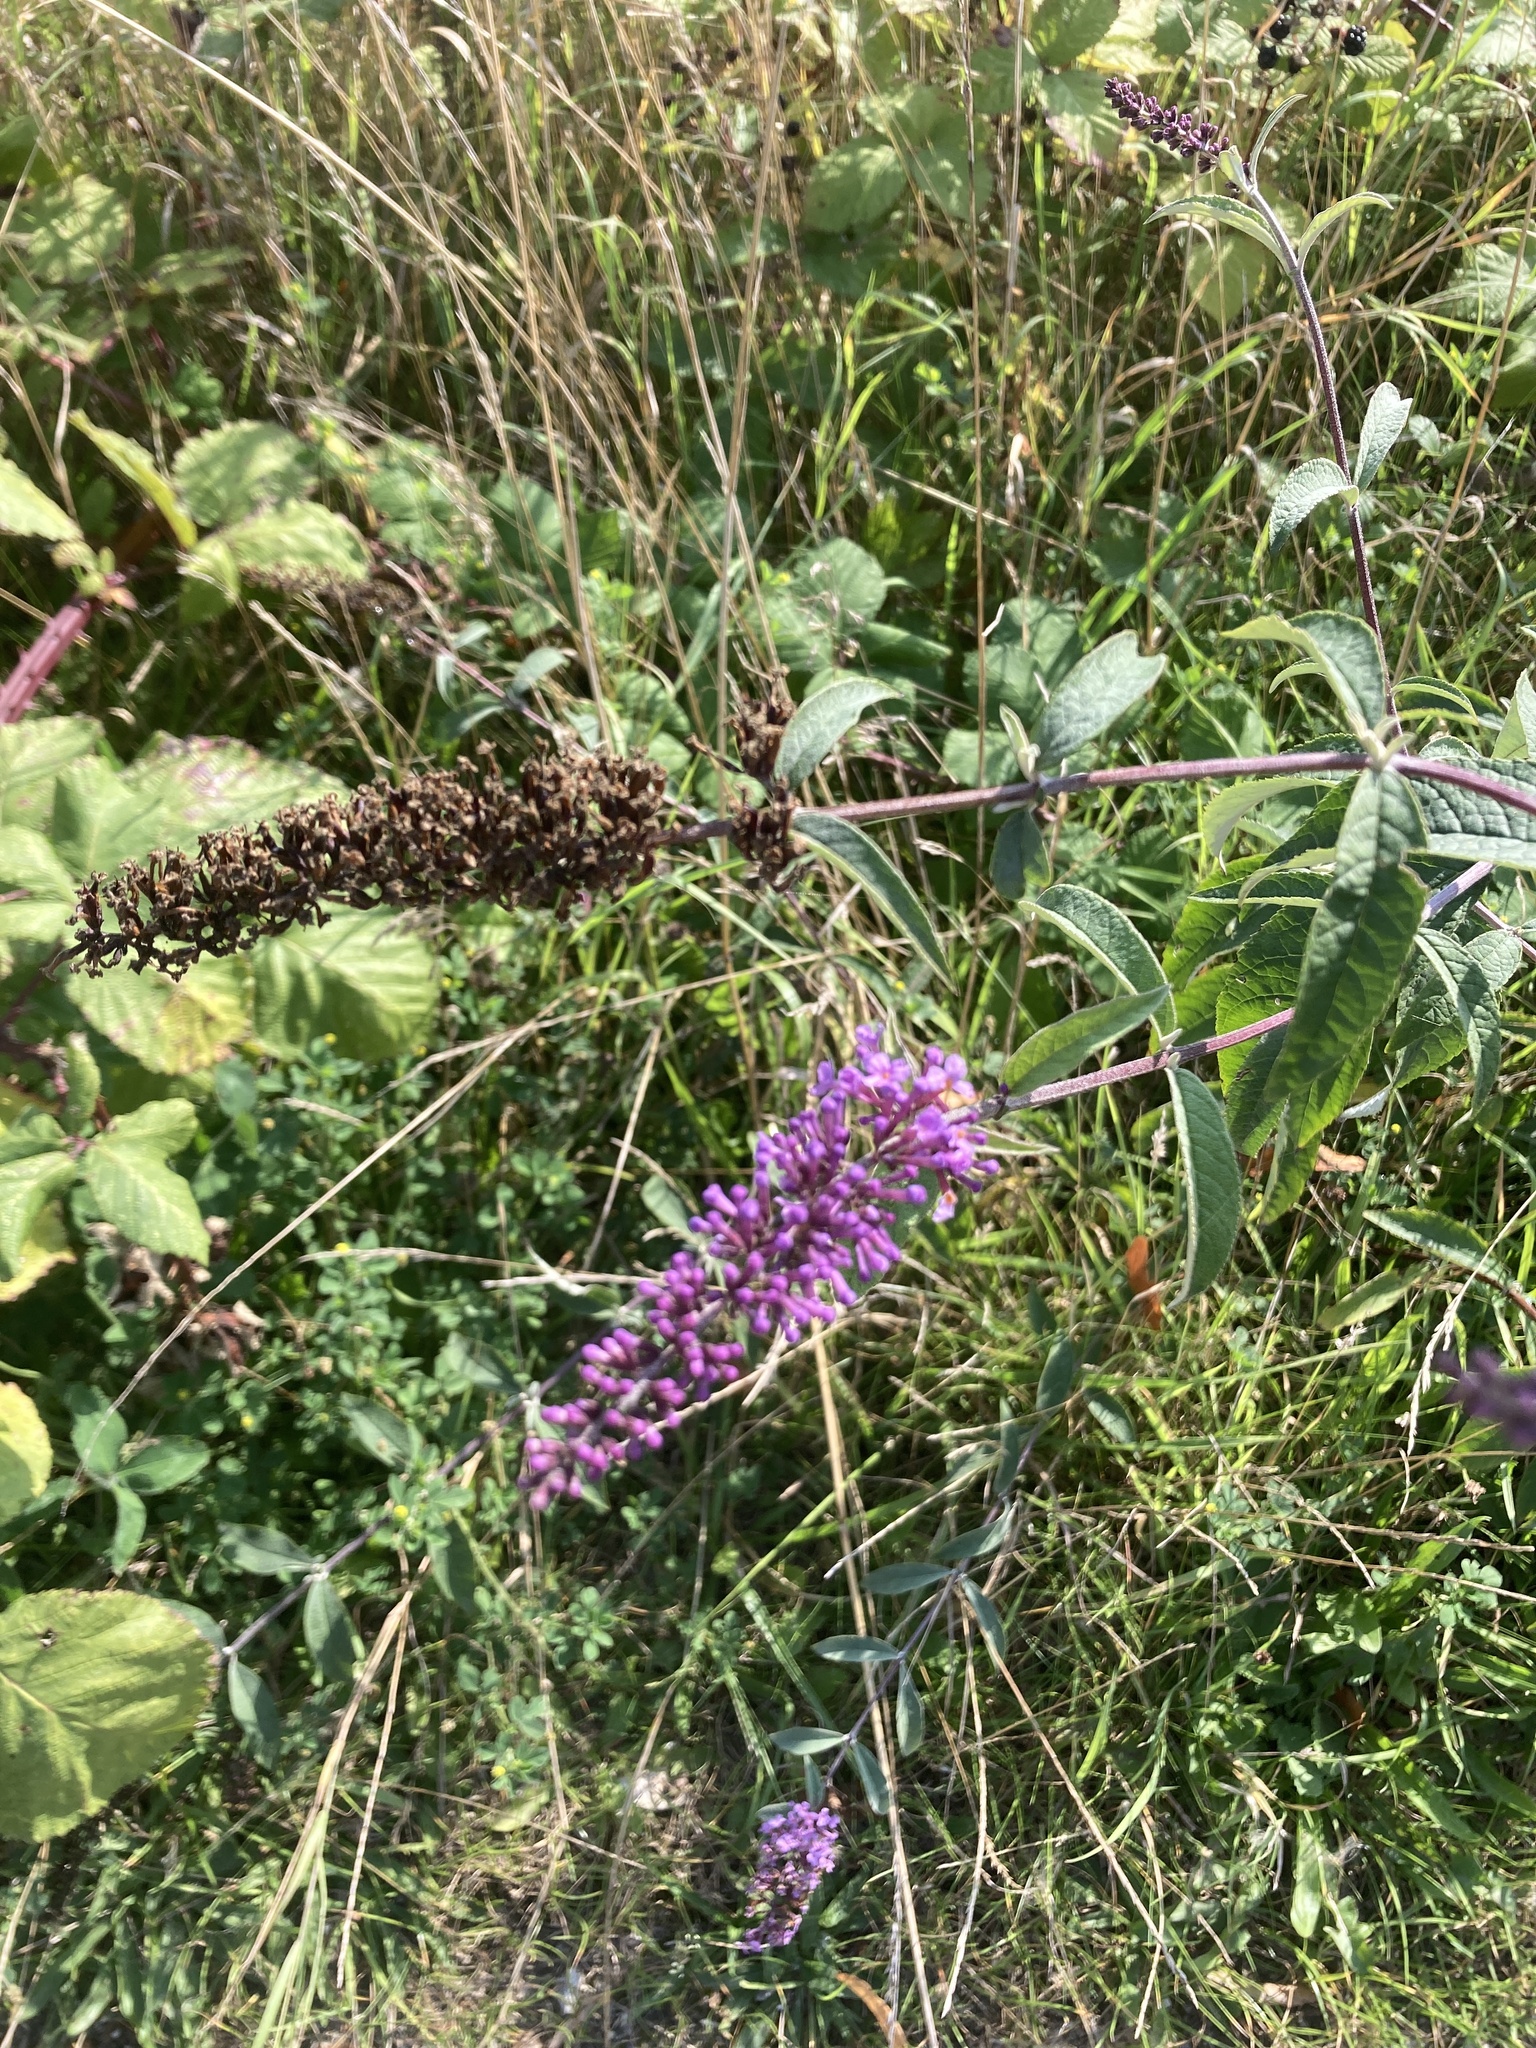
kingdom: Plantae
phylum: Tracheophyta
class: Magnoliopsida
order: Lamiales
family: Scrophulariaceae
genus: Buddleja
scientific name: Buddleja davidii
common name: Butterfly-bush
